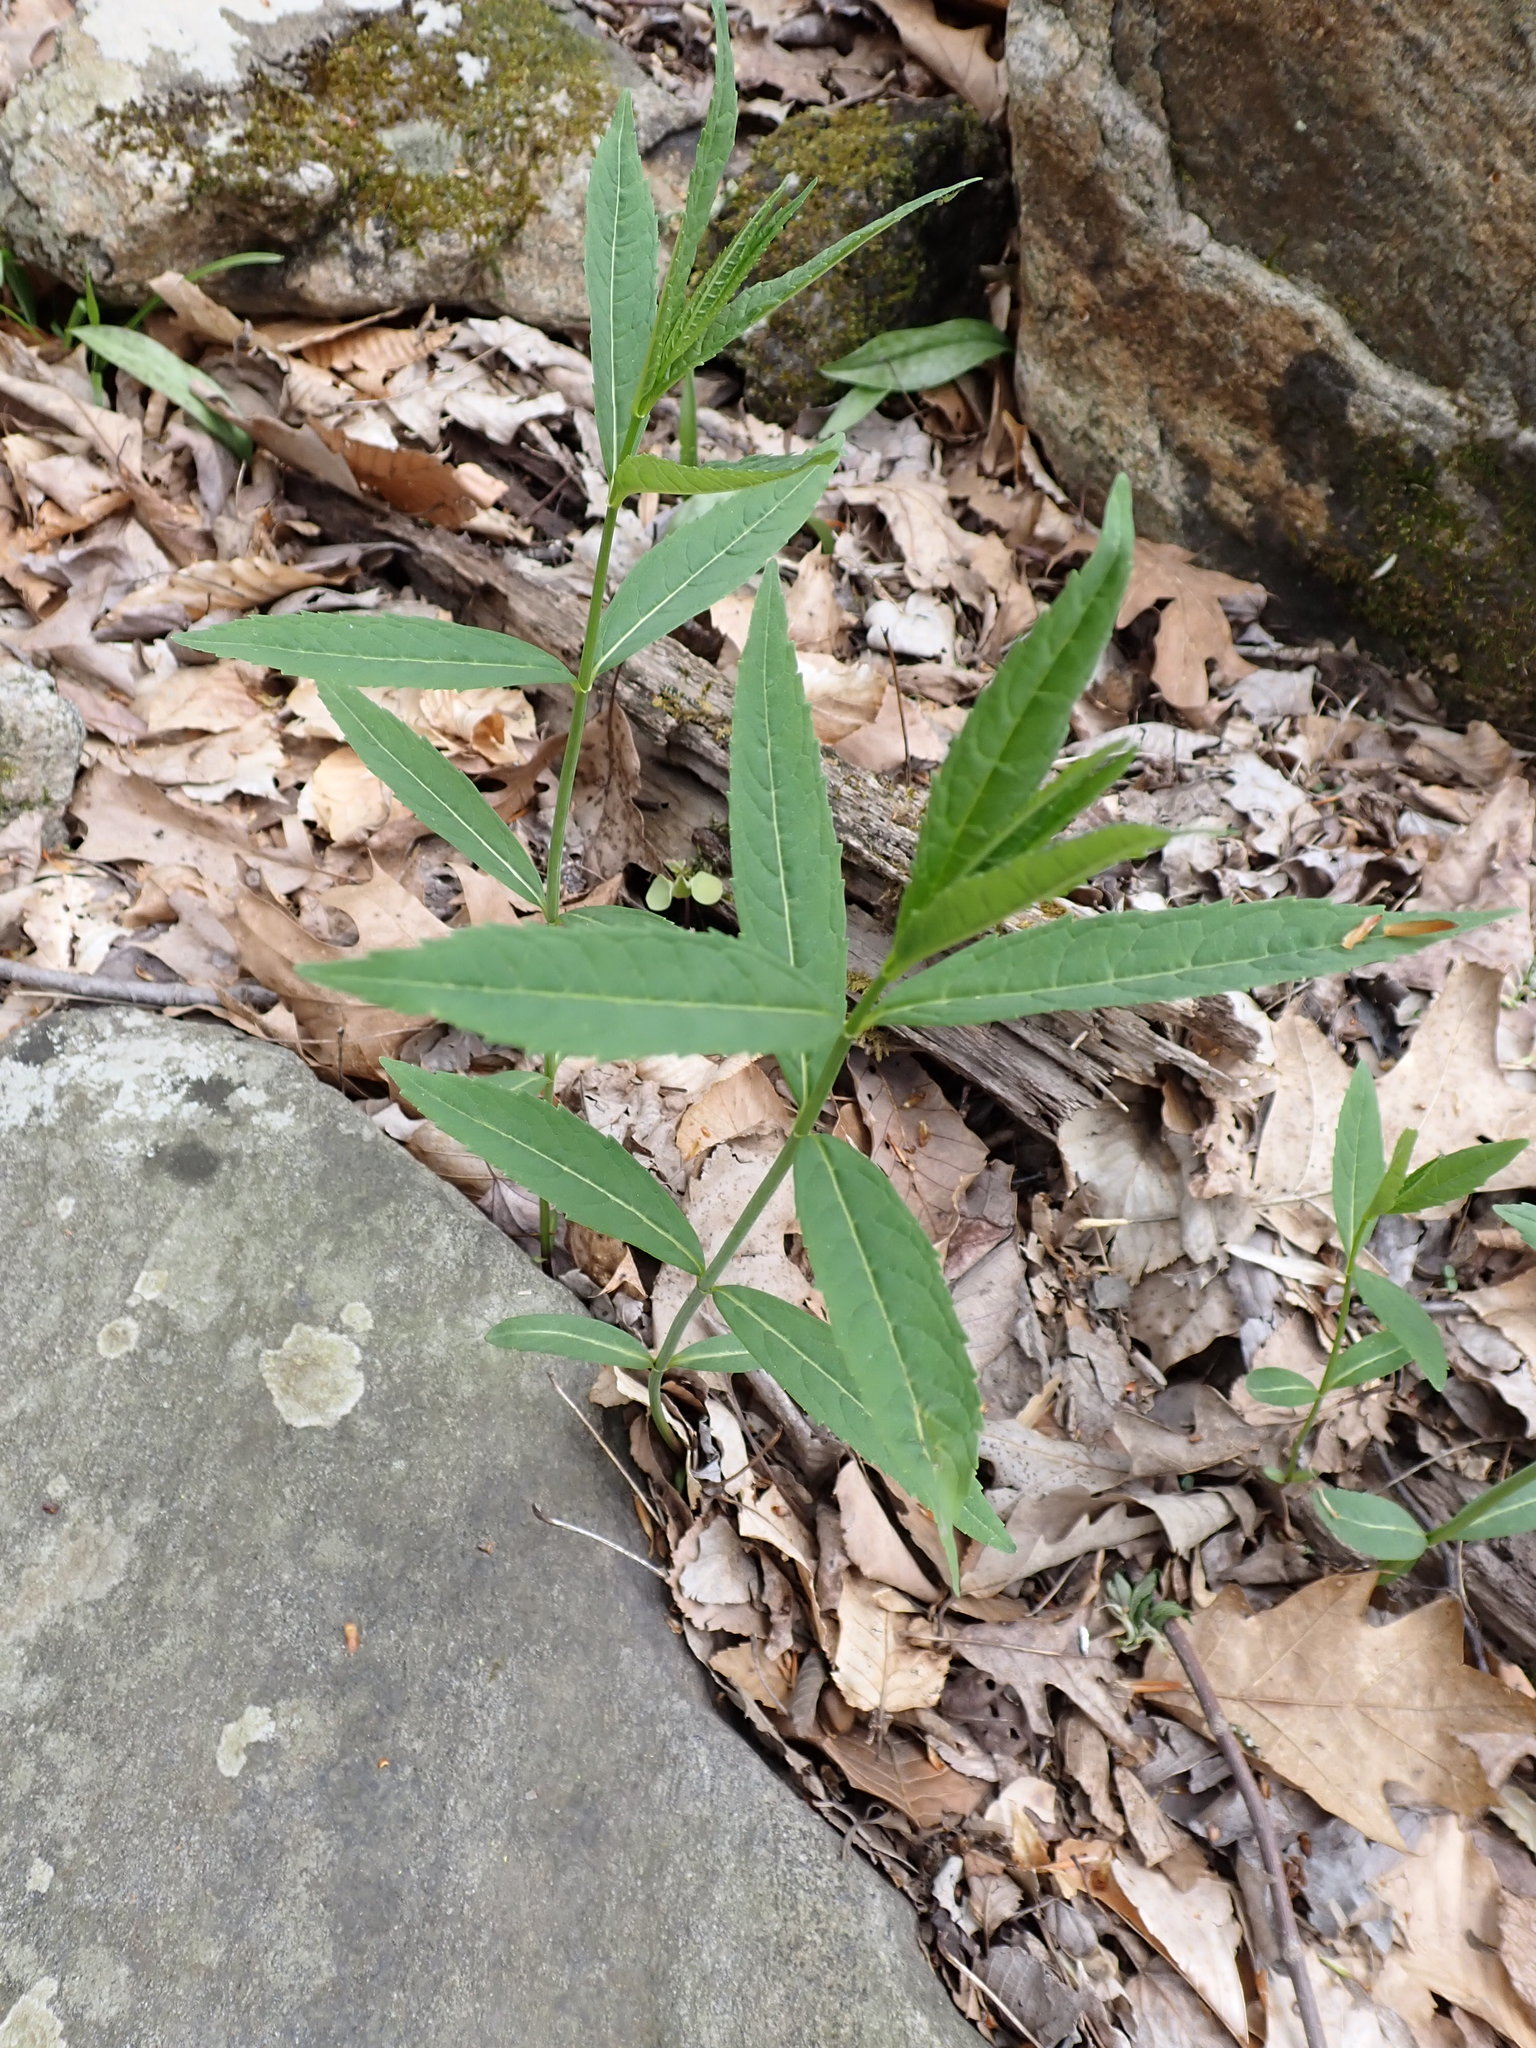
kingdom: Plantae
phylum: Tracheophyta
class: Magnoliopsida
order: Lamiales
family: Plantaginaceae
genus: Chelone
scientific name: Chelone glabra
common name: Snakehead
